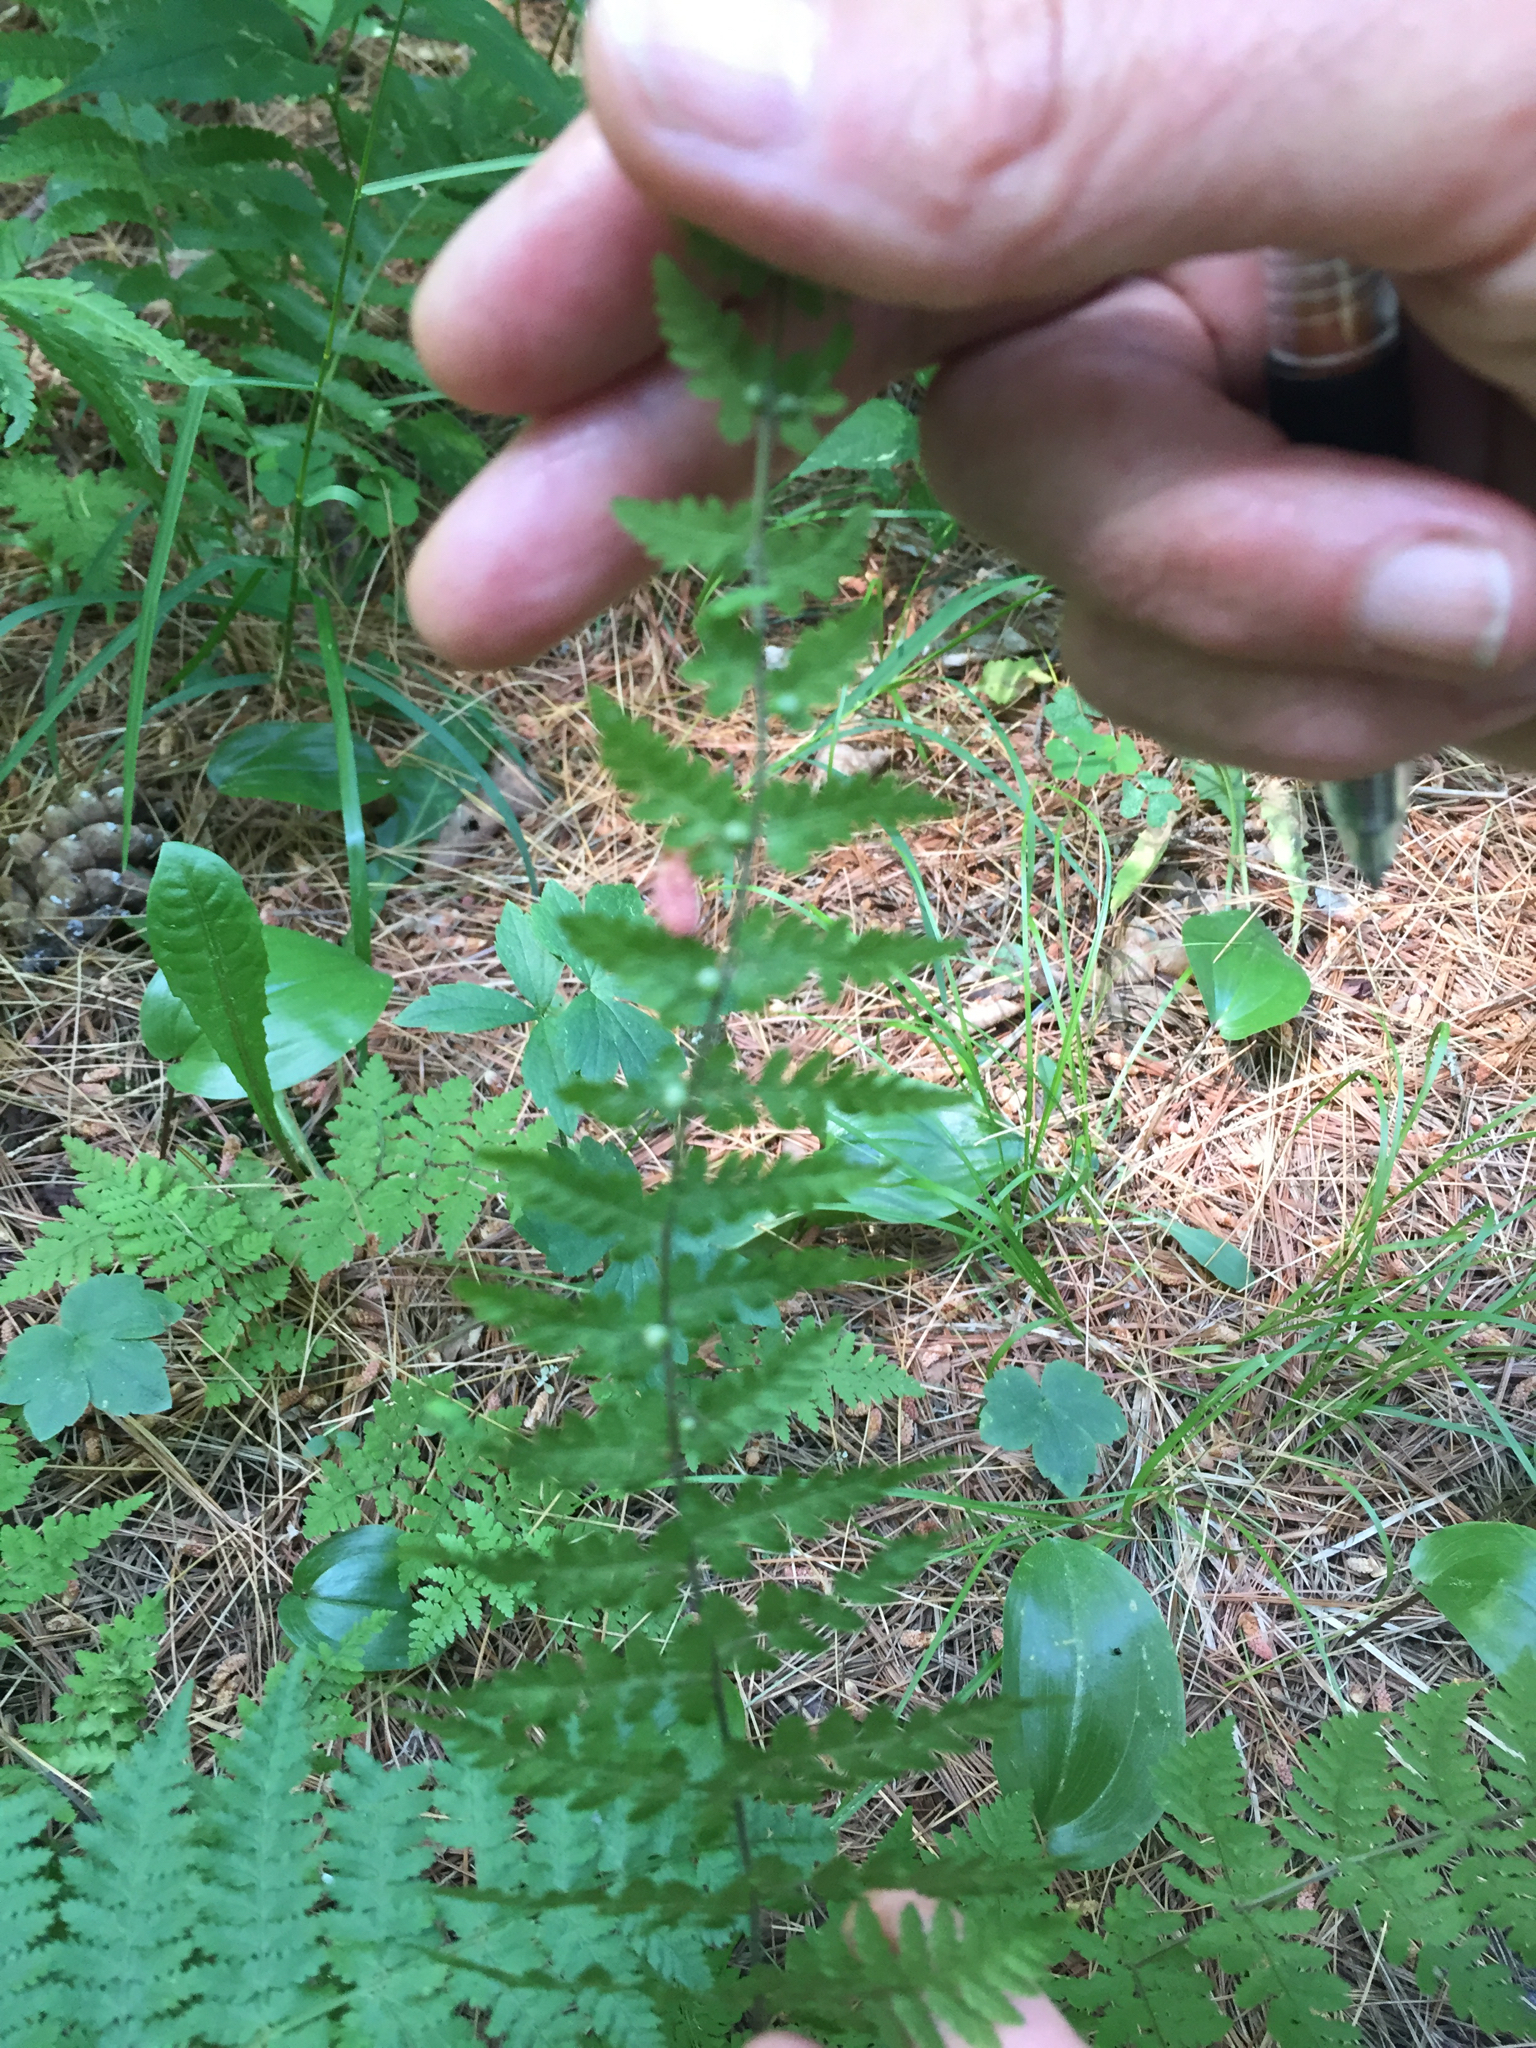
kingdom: Plantae
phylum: Tracheophyta
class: Polypodiopsida
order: Polypodiales
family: Cystopteridaceae
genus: Cystopteris
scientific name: Cystopteris bulbifera
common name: Bulblet bladder fern
